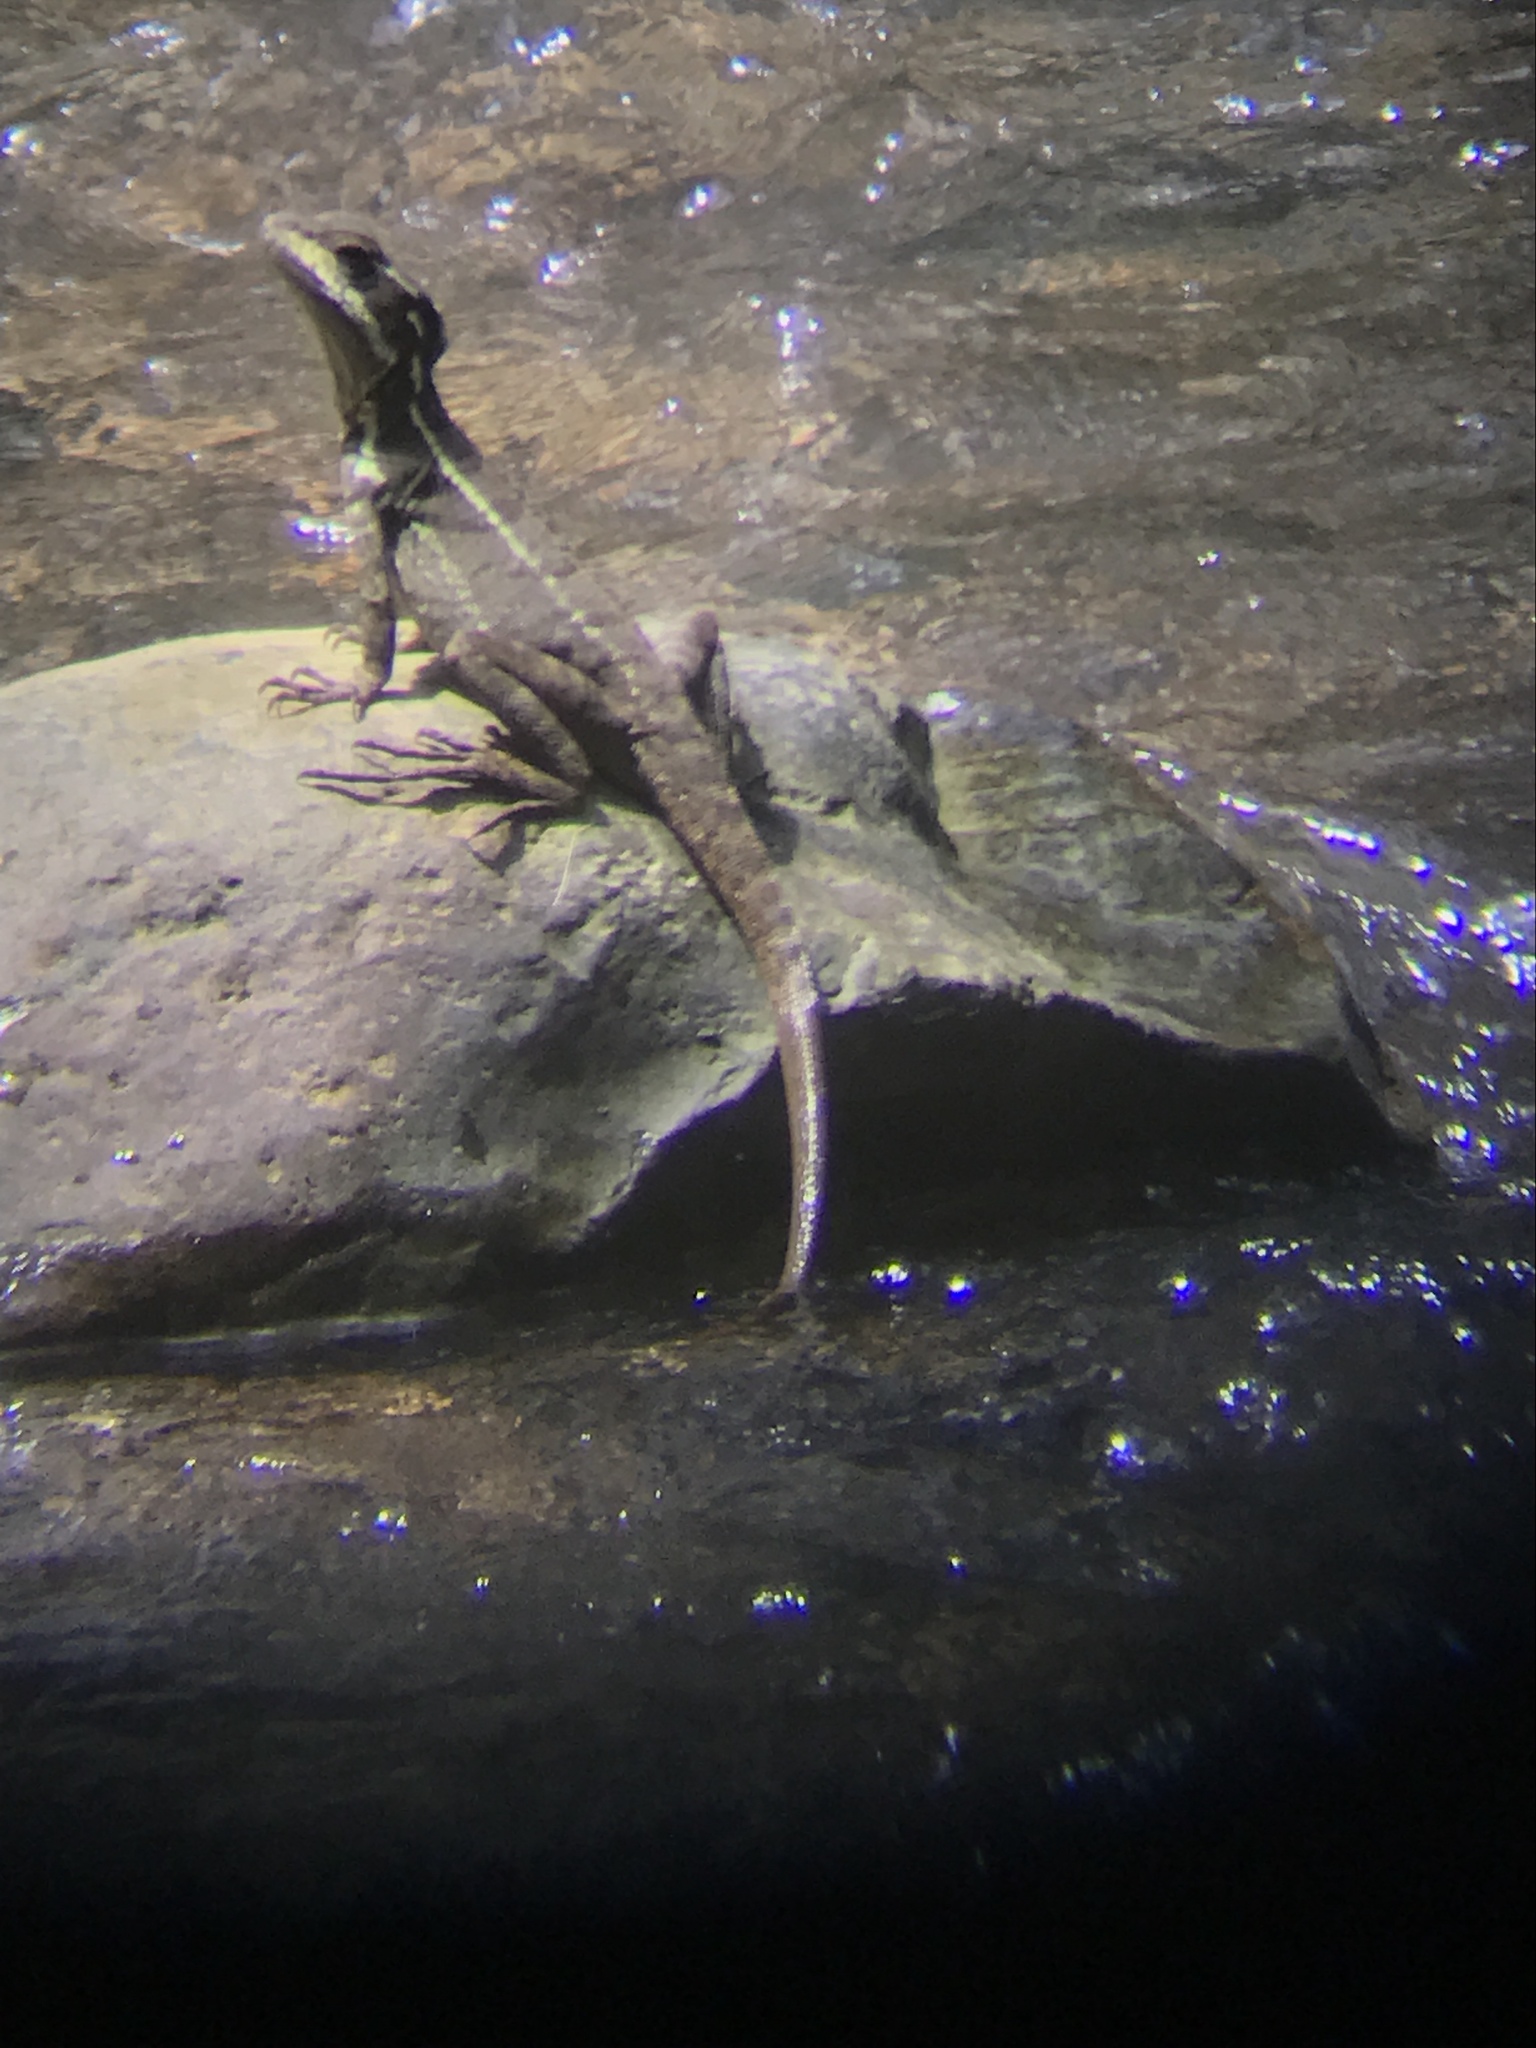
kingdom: Animalia
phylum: Chordata
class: Squamata
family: Corytophanidae
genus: Basiliscus
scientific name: Basiliscus basiliscus
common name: Common basilisk
